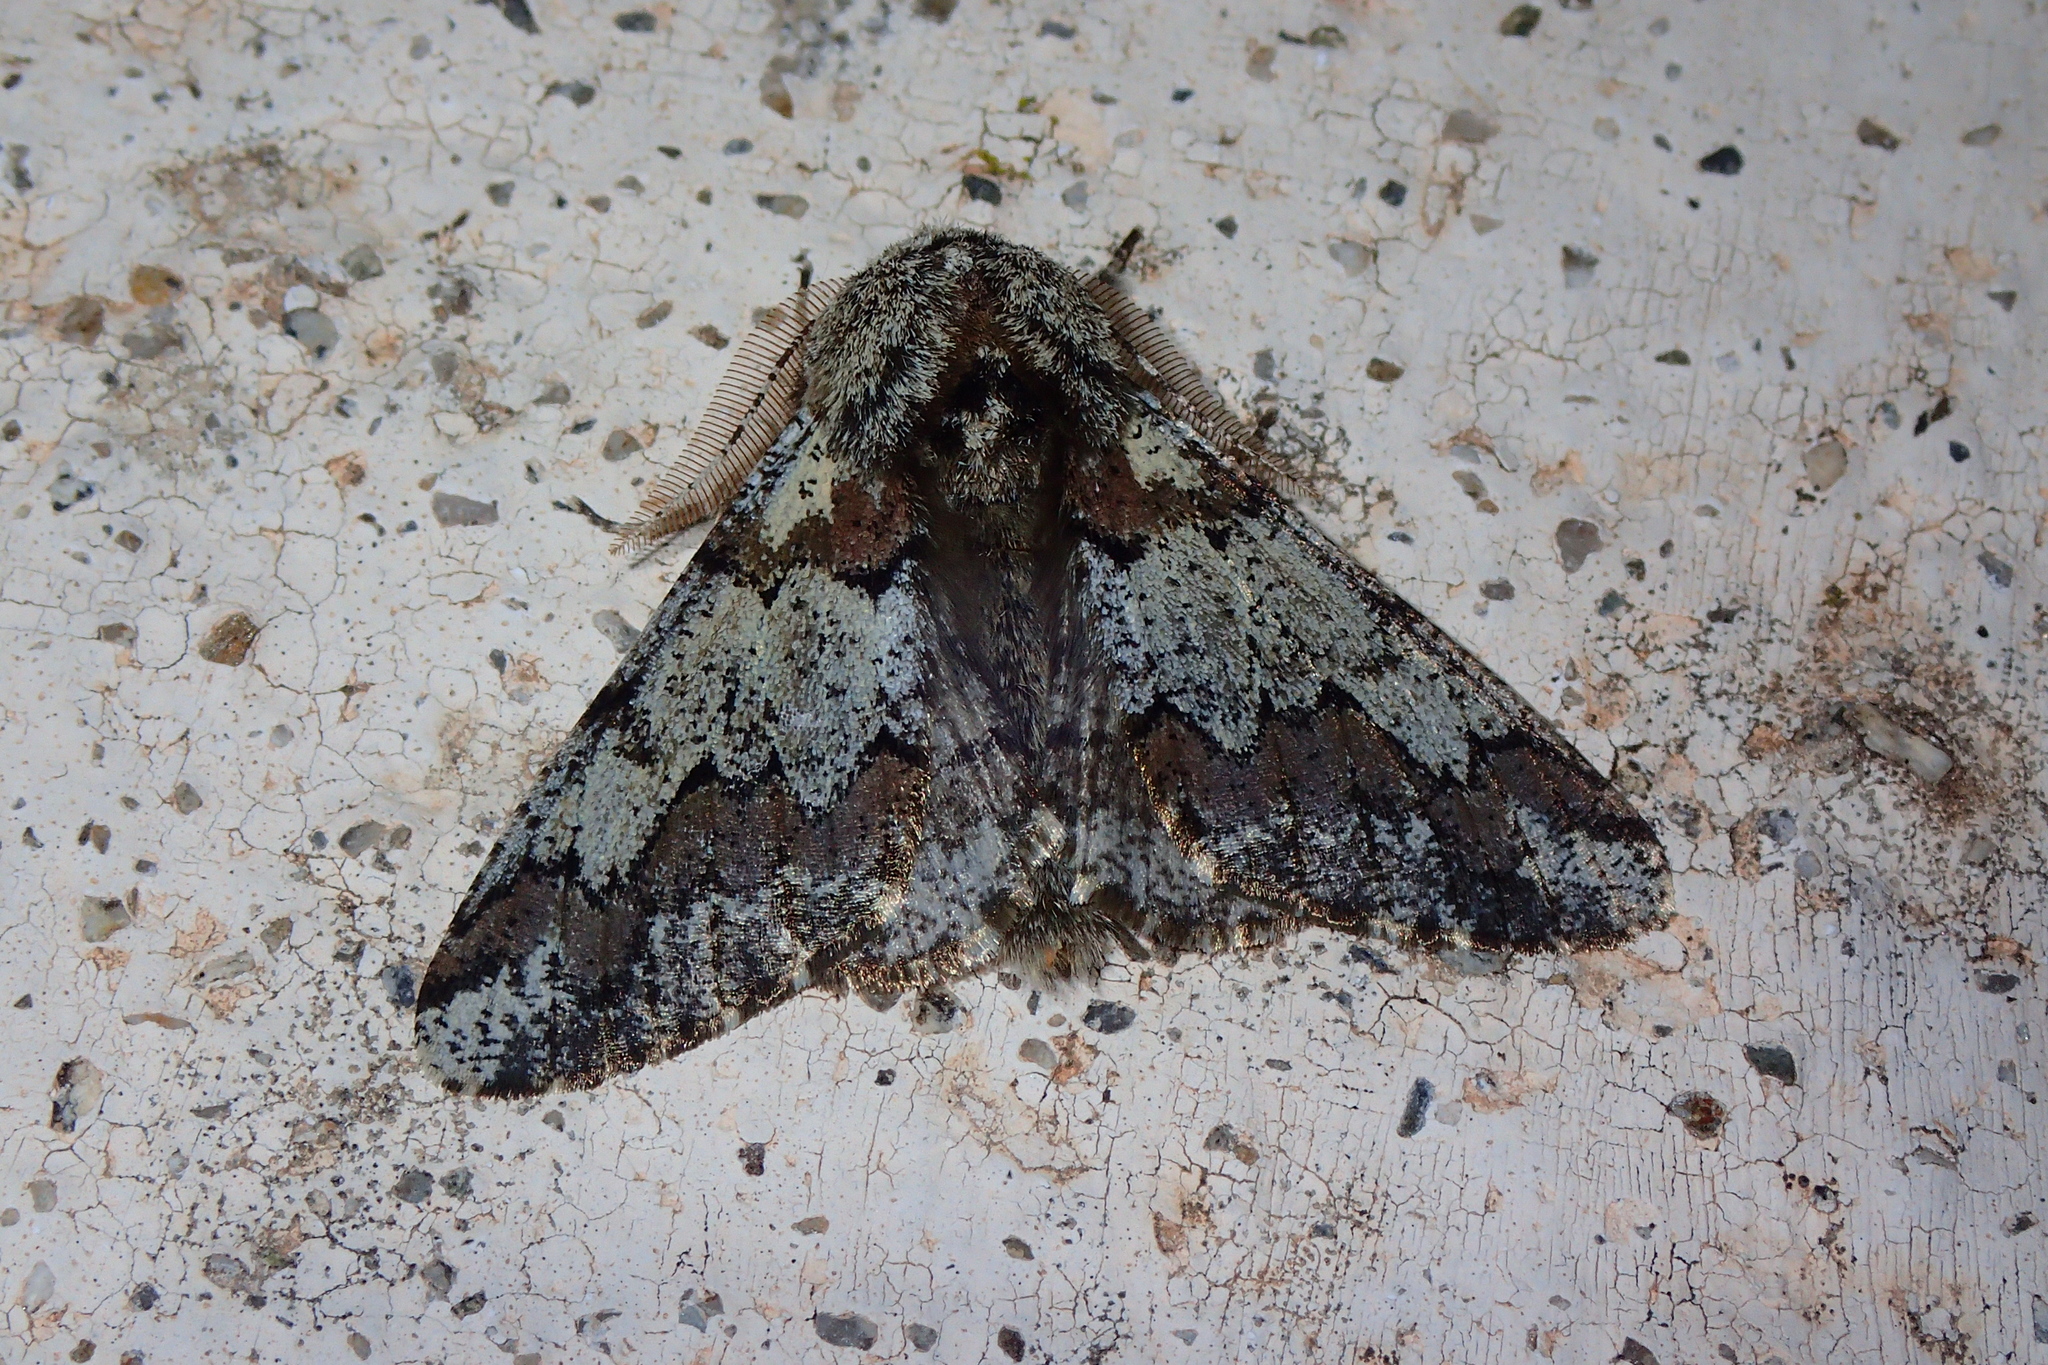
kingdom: Animalia
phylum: Arthropoda
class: Insecta
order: Lepidoptera
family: Geometridae
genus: Biston
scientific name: Biston strataria
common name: Oak beauty
